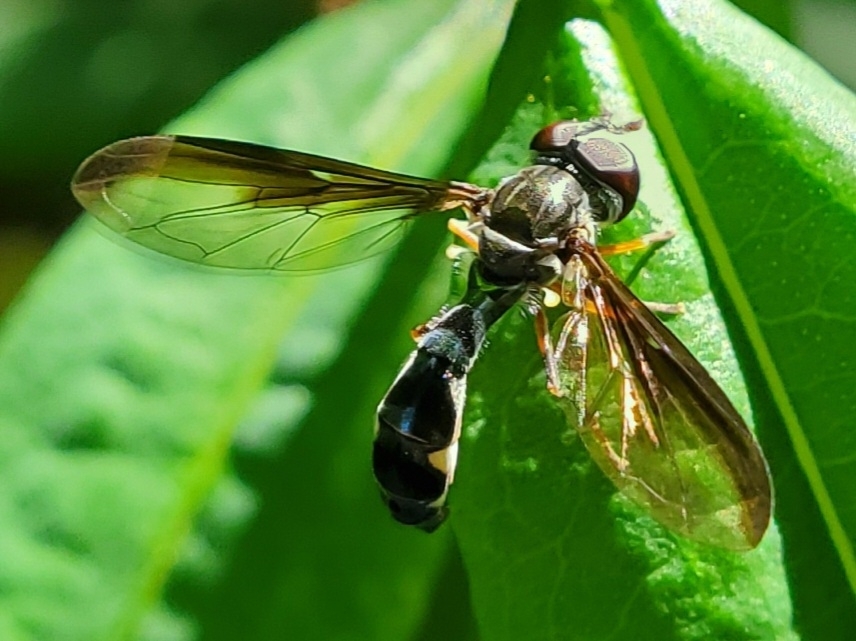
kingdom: Animalia
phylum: Arthropoda
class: Insecta
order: Diptera
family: Syrphidae
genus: Ocyptamus
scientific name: Ocyptamus costatus
